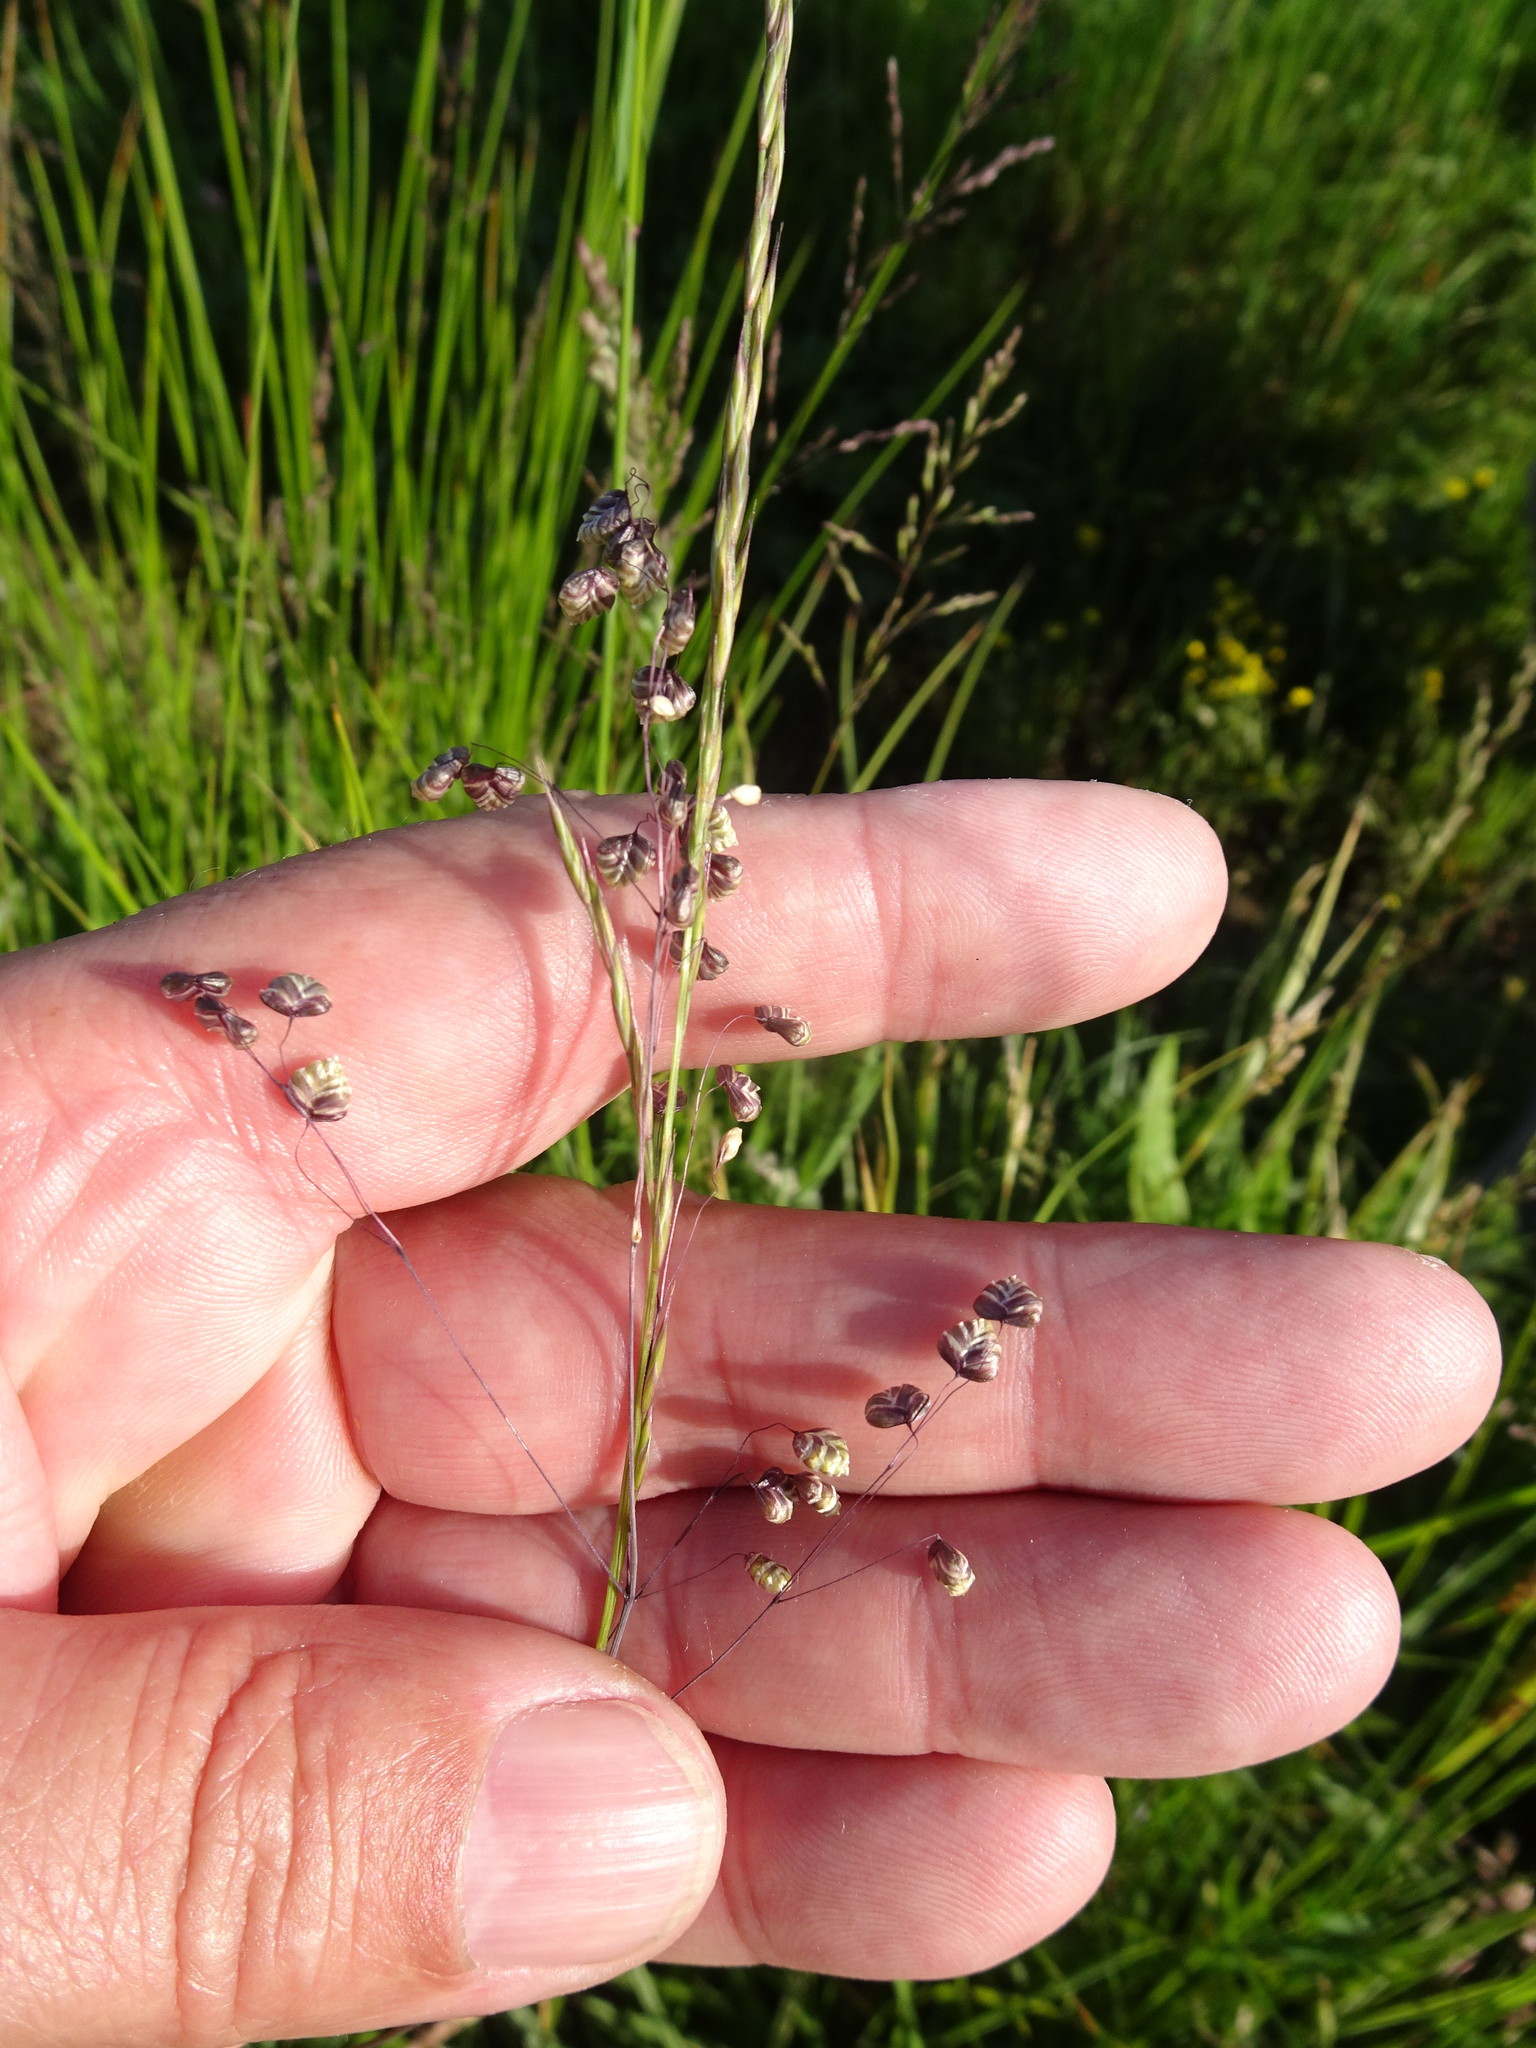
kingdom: Plantae
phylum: Tracheophyta
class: Liliopsida
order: Poales
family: Poaceae
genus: Briza
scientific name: Briza media
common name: Quaking grass
